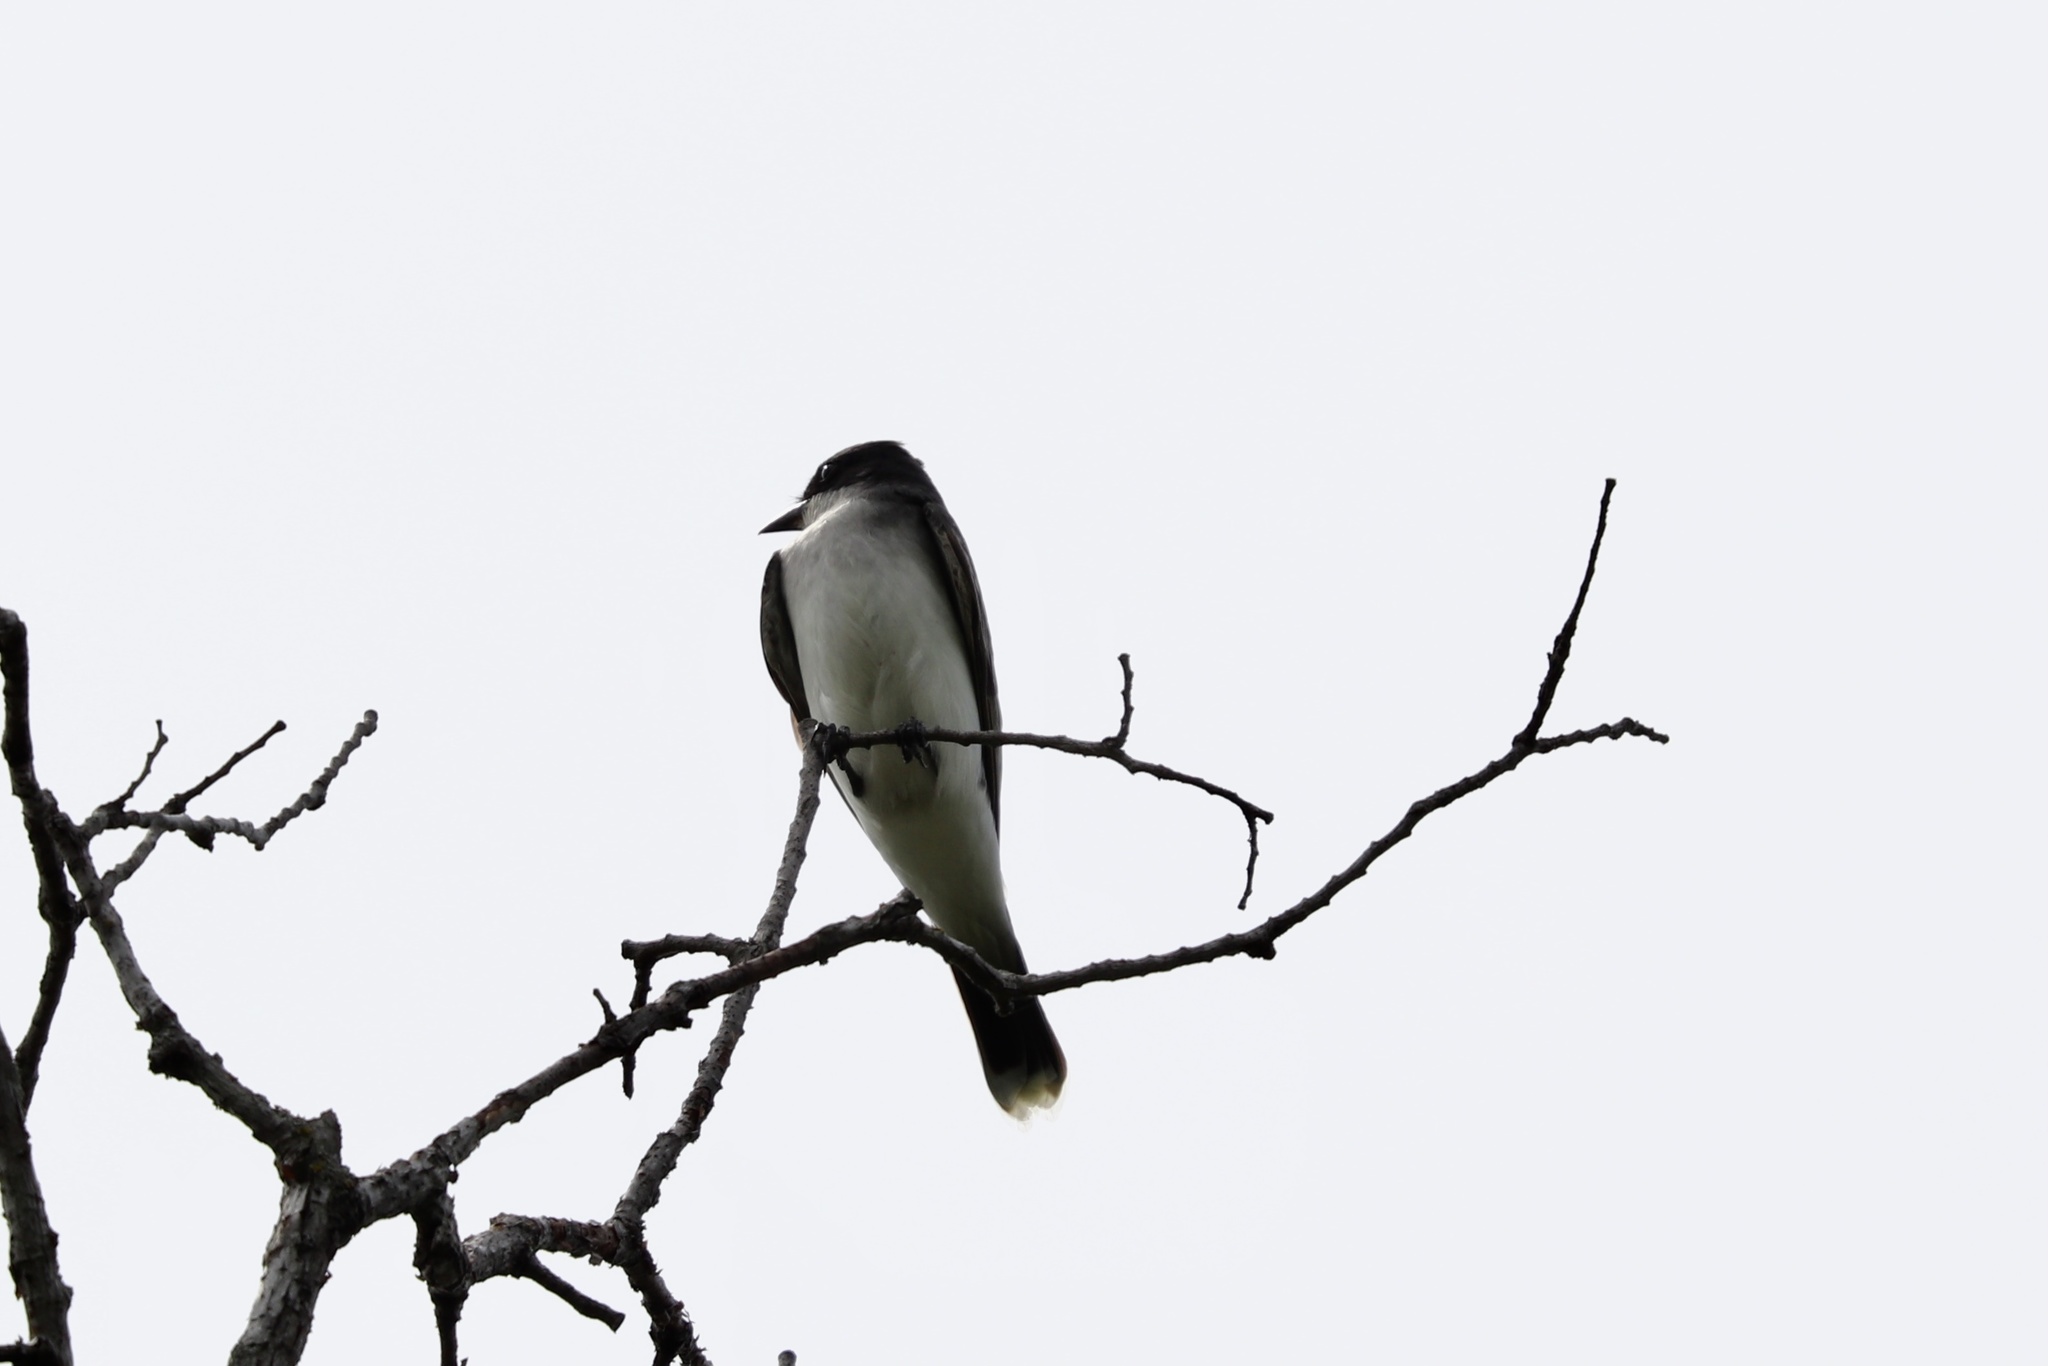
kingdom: Animalia
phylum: Chordata
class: Aves
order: Passeriformes
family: Tyrannidae
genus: Tyrannus
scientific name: Tyrannus tyrannus
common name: Eastern kingbird
